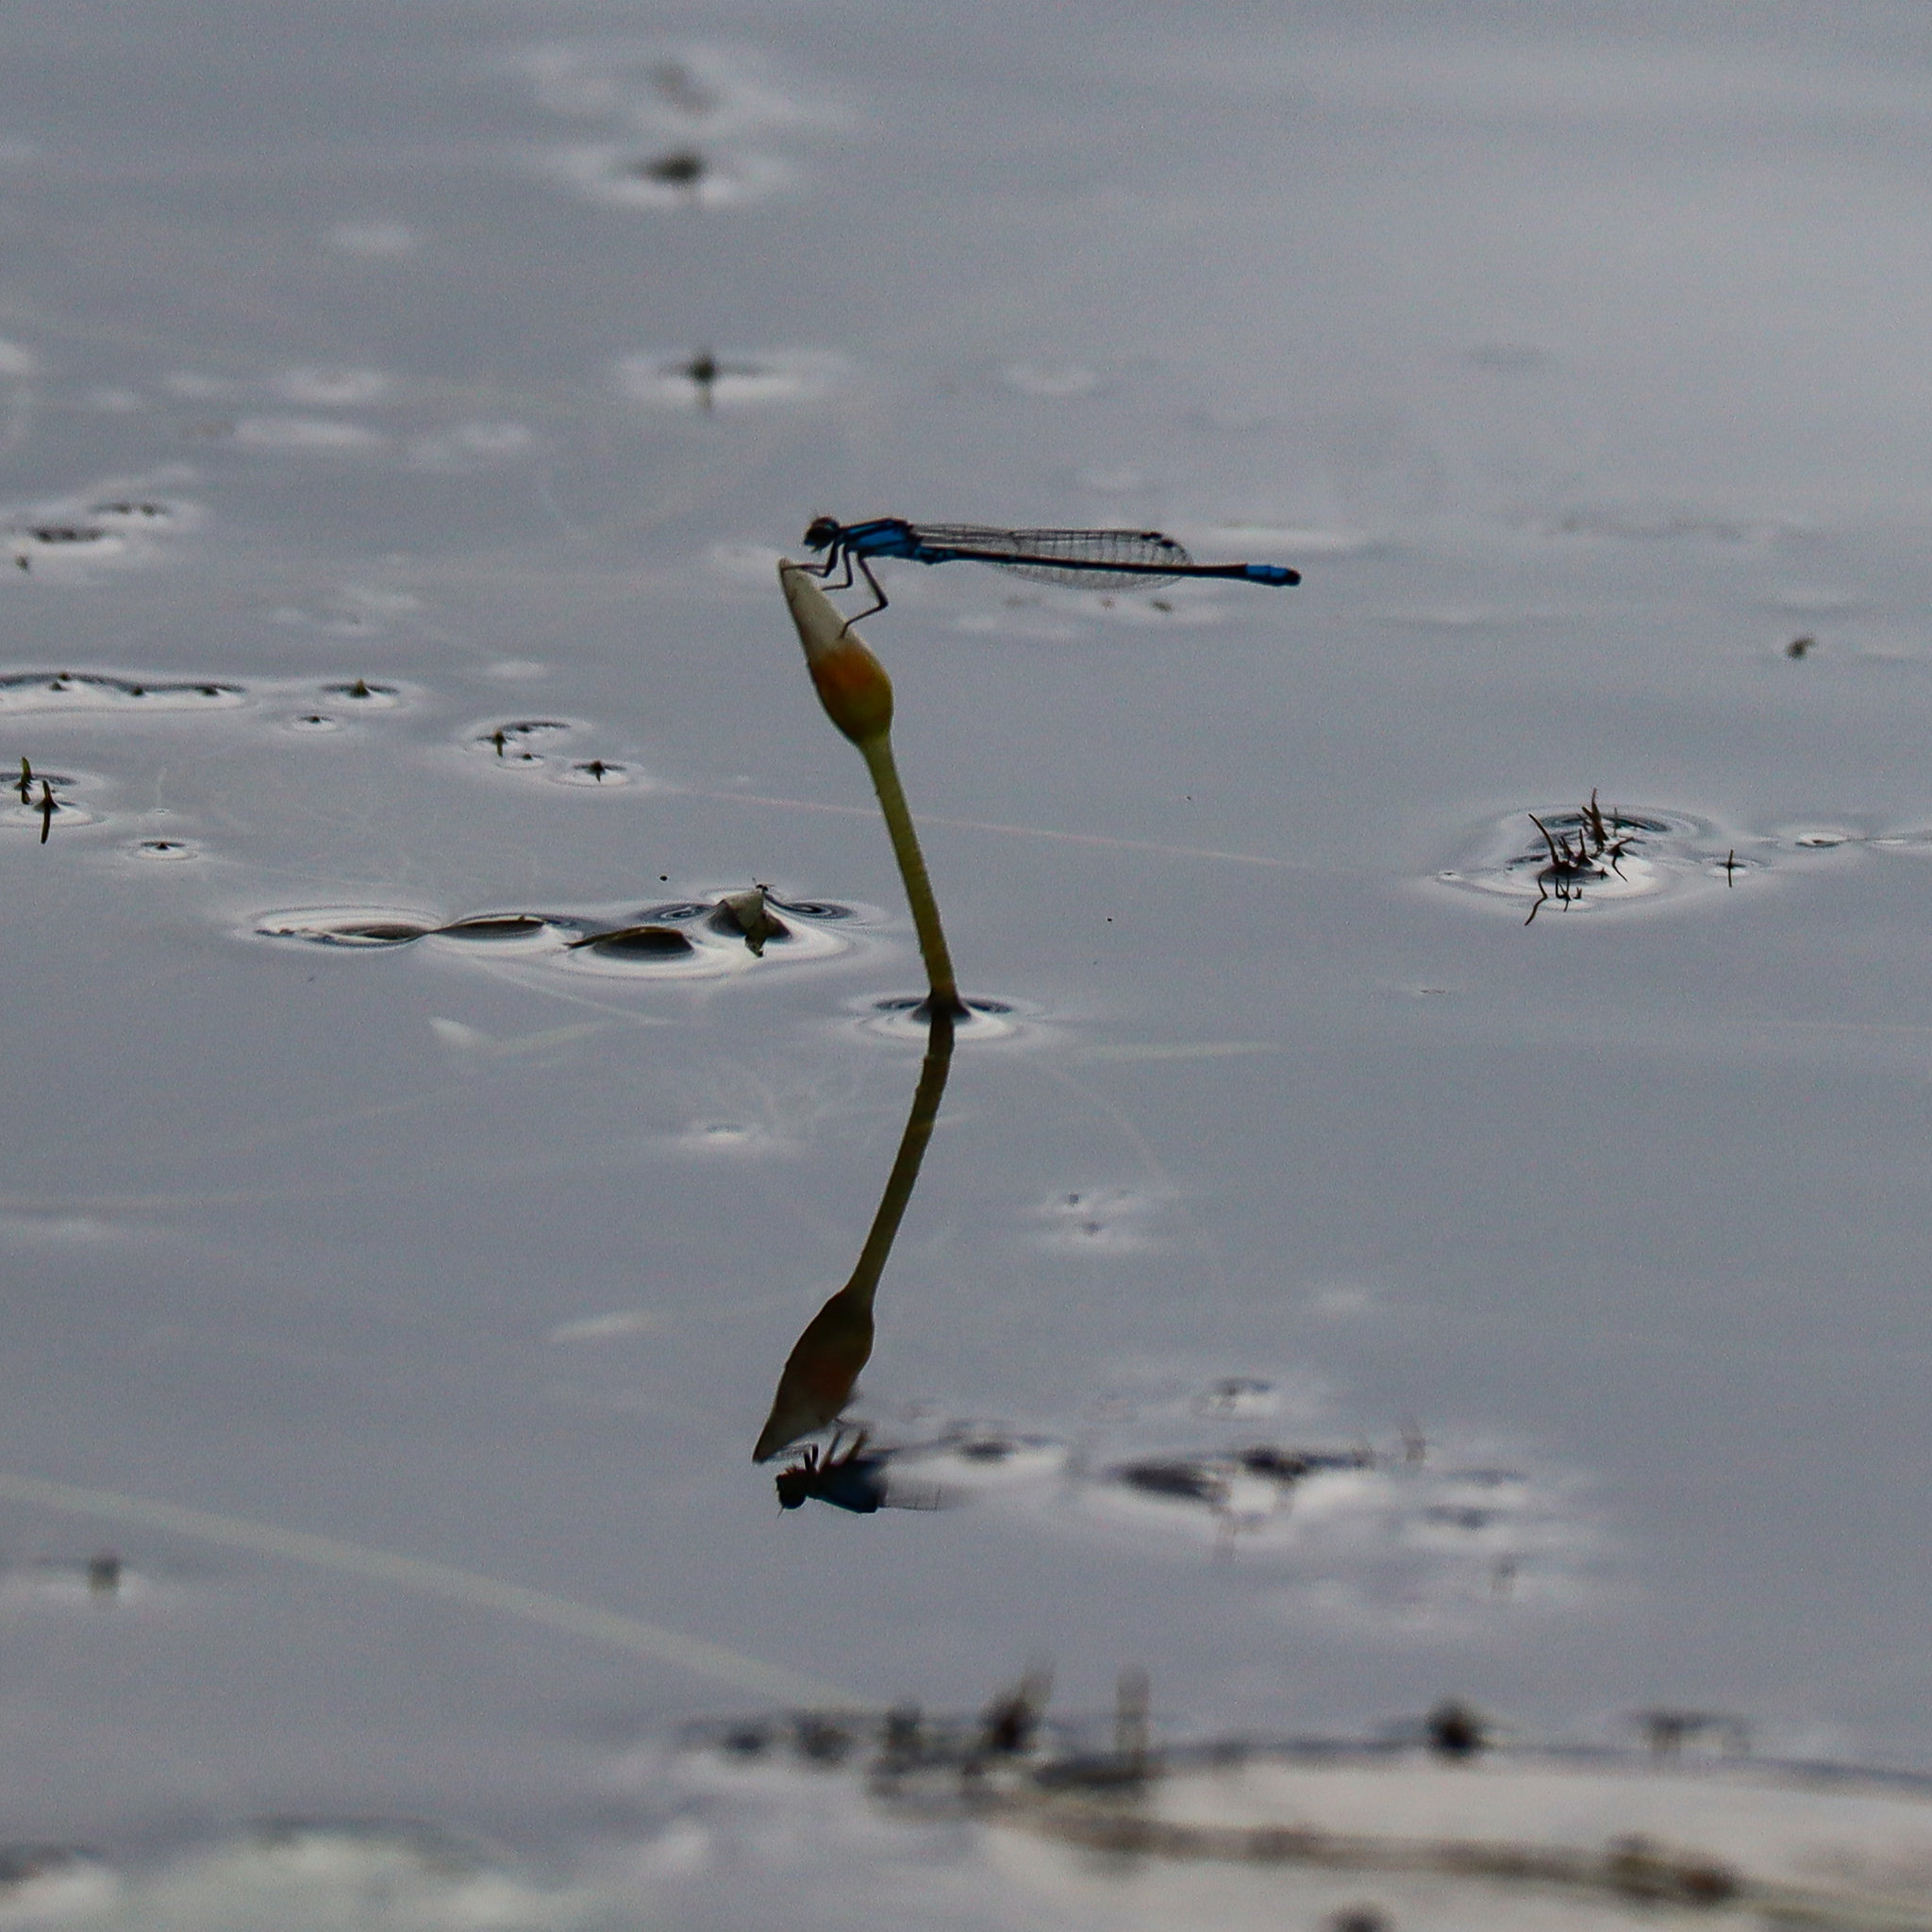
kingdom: Animalia
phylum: Arthropoda
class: Insecta
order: Odonata
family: Coenagrionidae
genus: Enallagma
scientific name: Enallagma geminatum
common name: Skimming bluet
